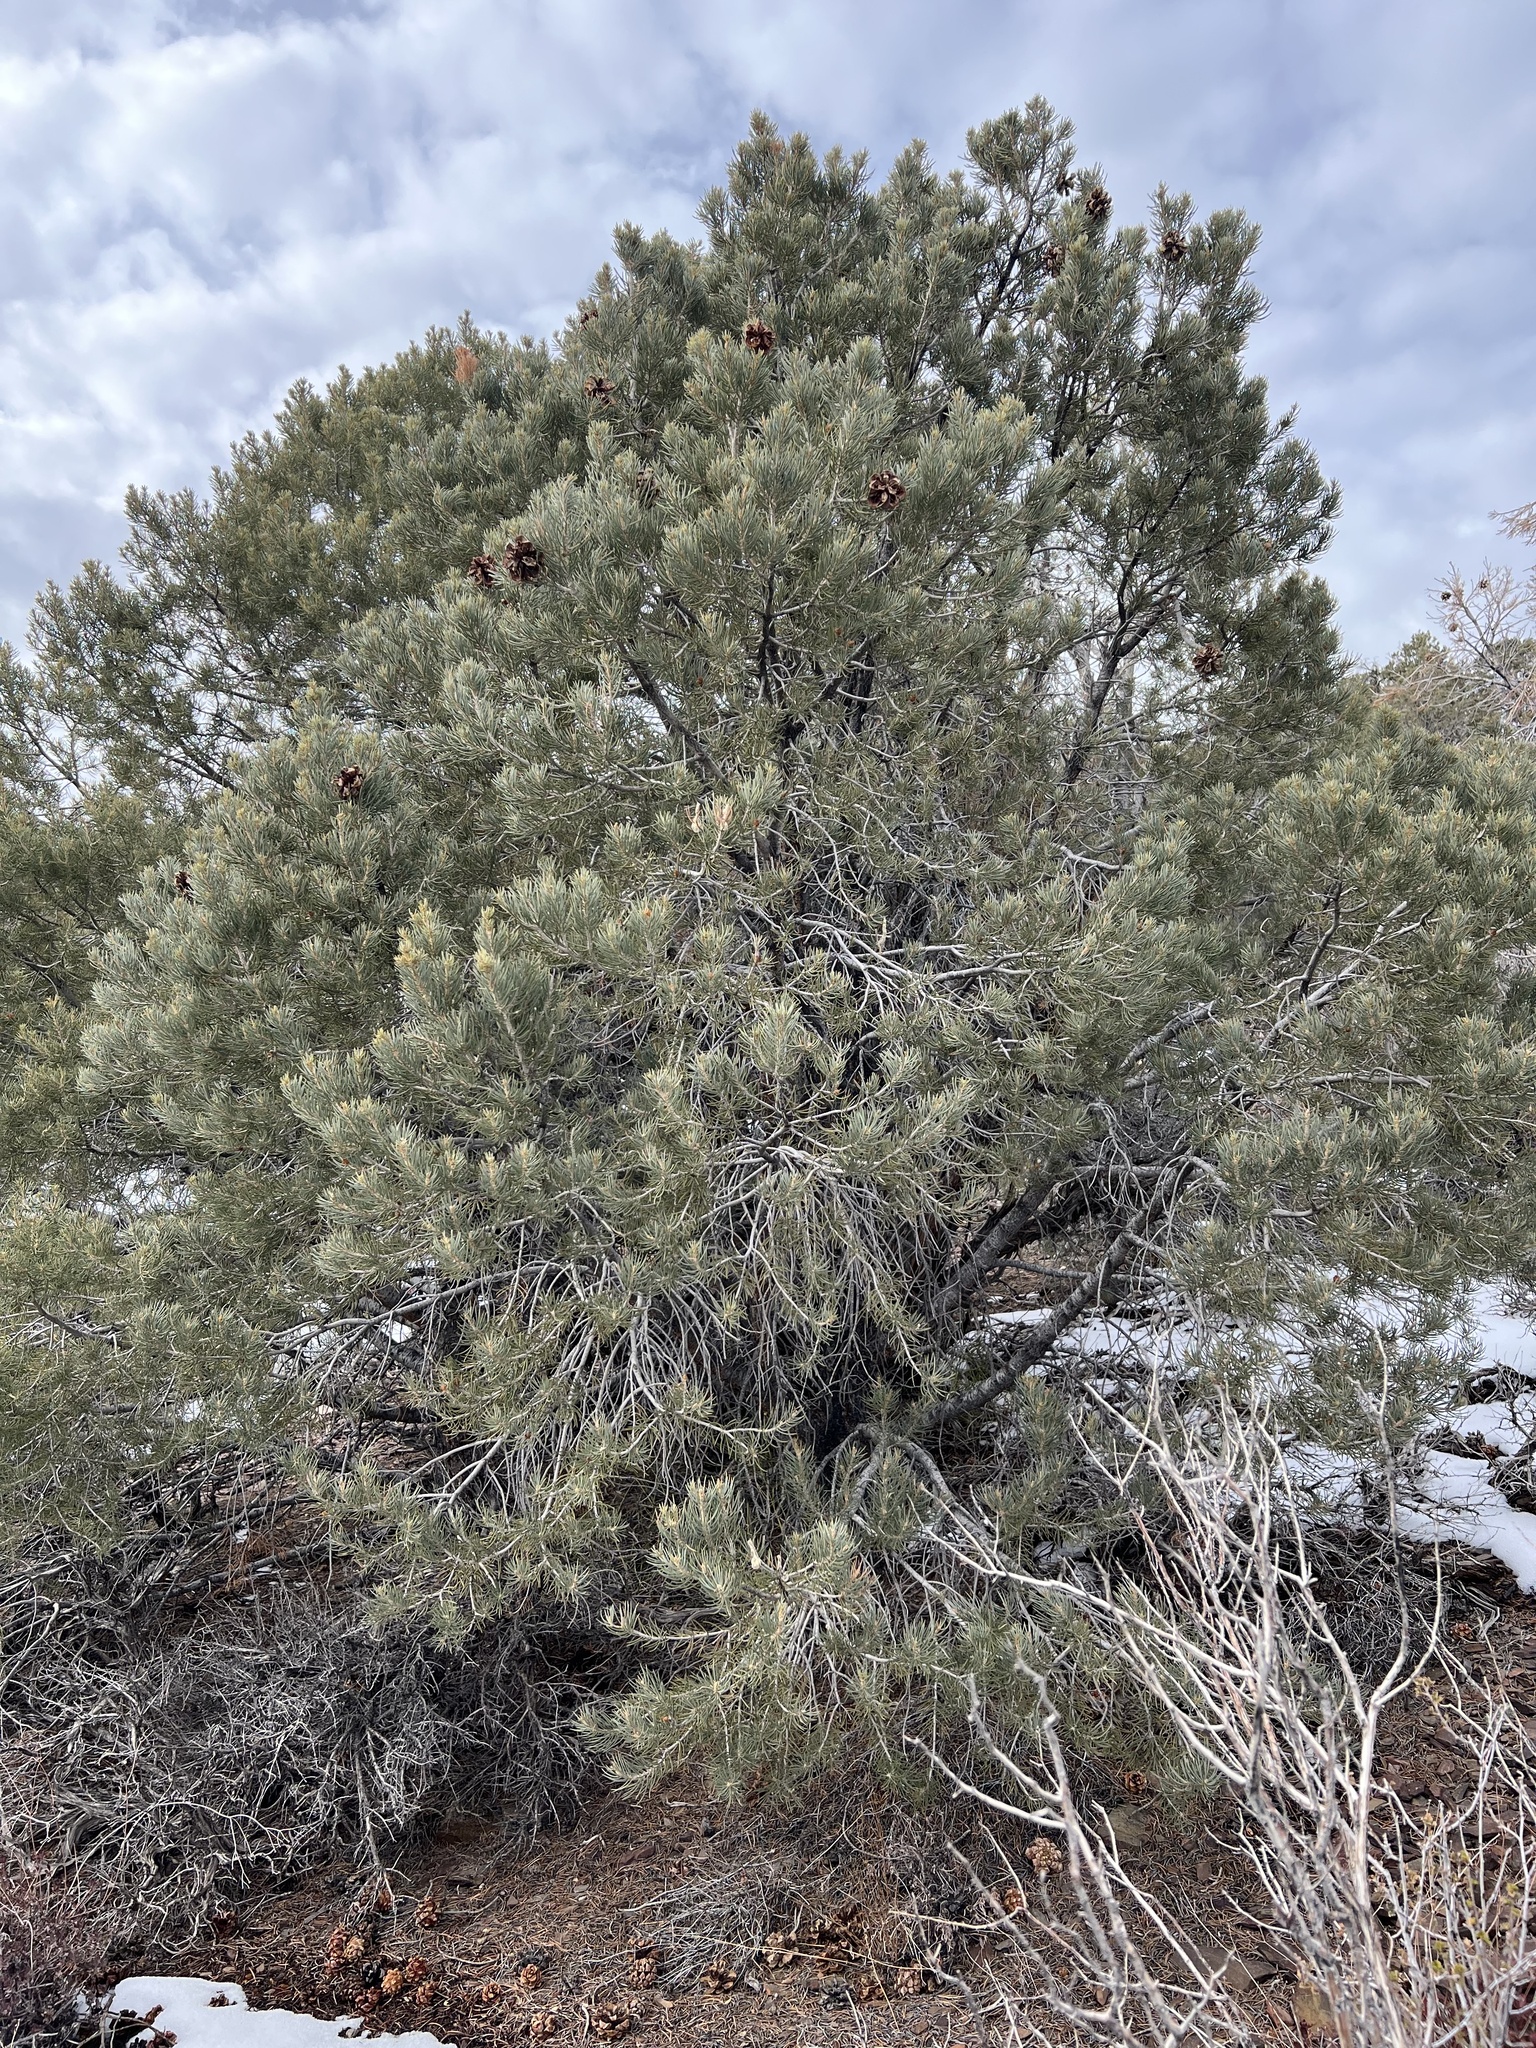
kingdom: Plantae
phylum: Tracheophyta
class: Pinopsida
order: Pinales
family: Pinaceae
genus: Pinus
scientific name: Pinus monophylla
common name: One-leaved nut pine
